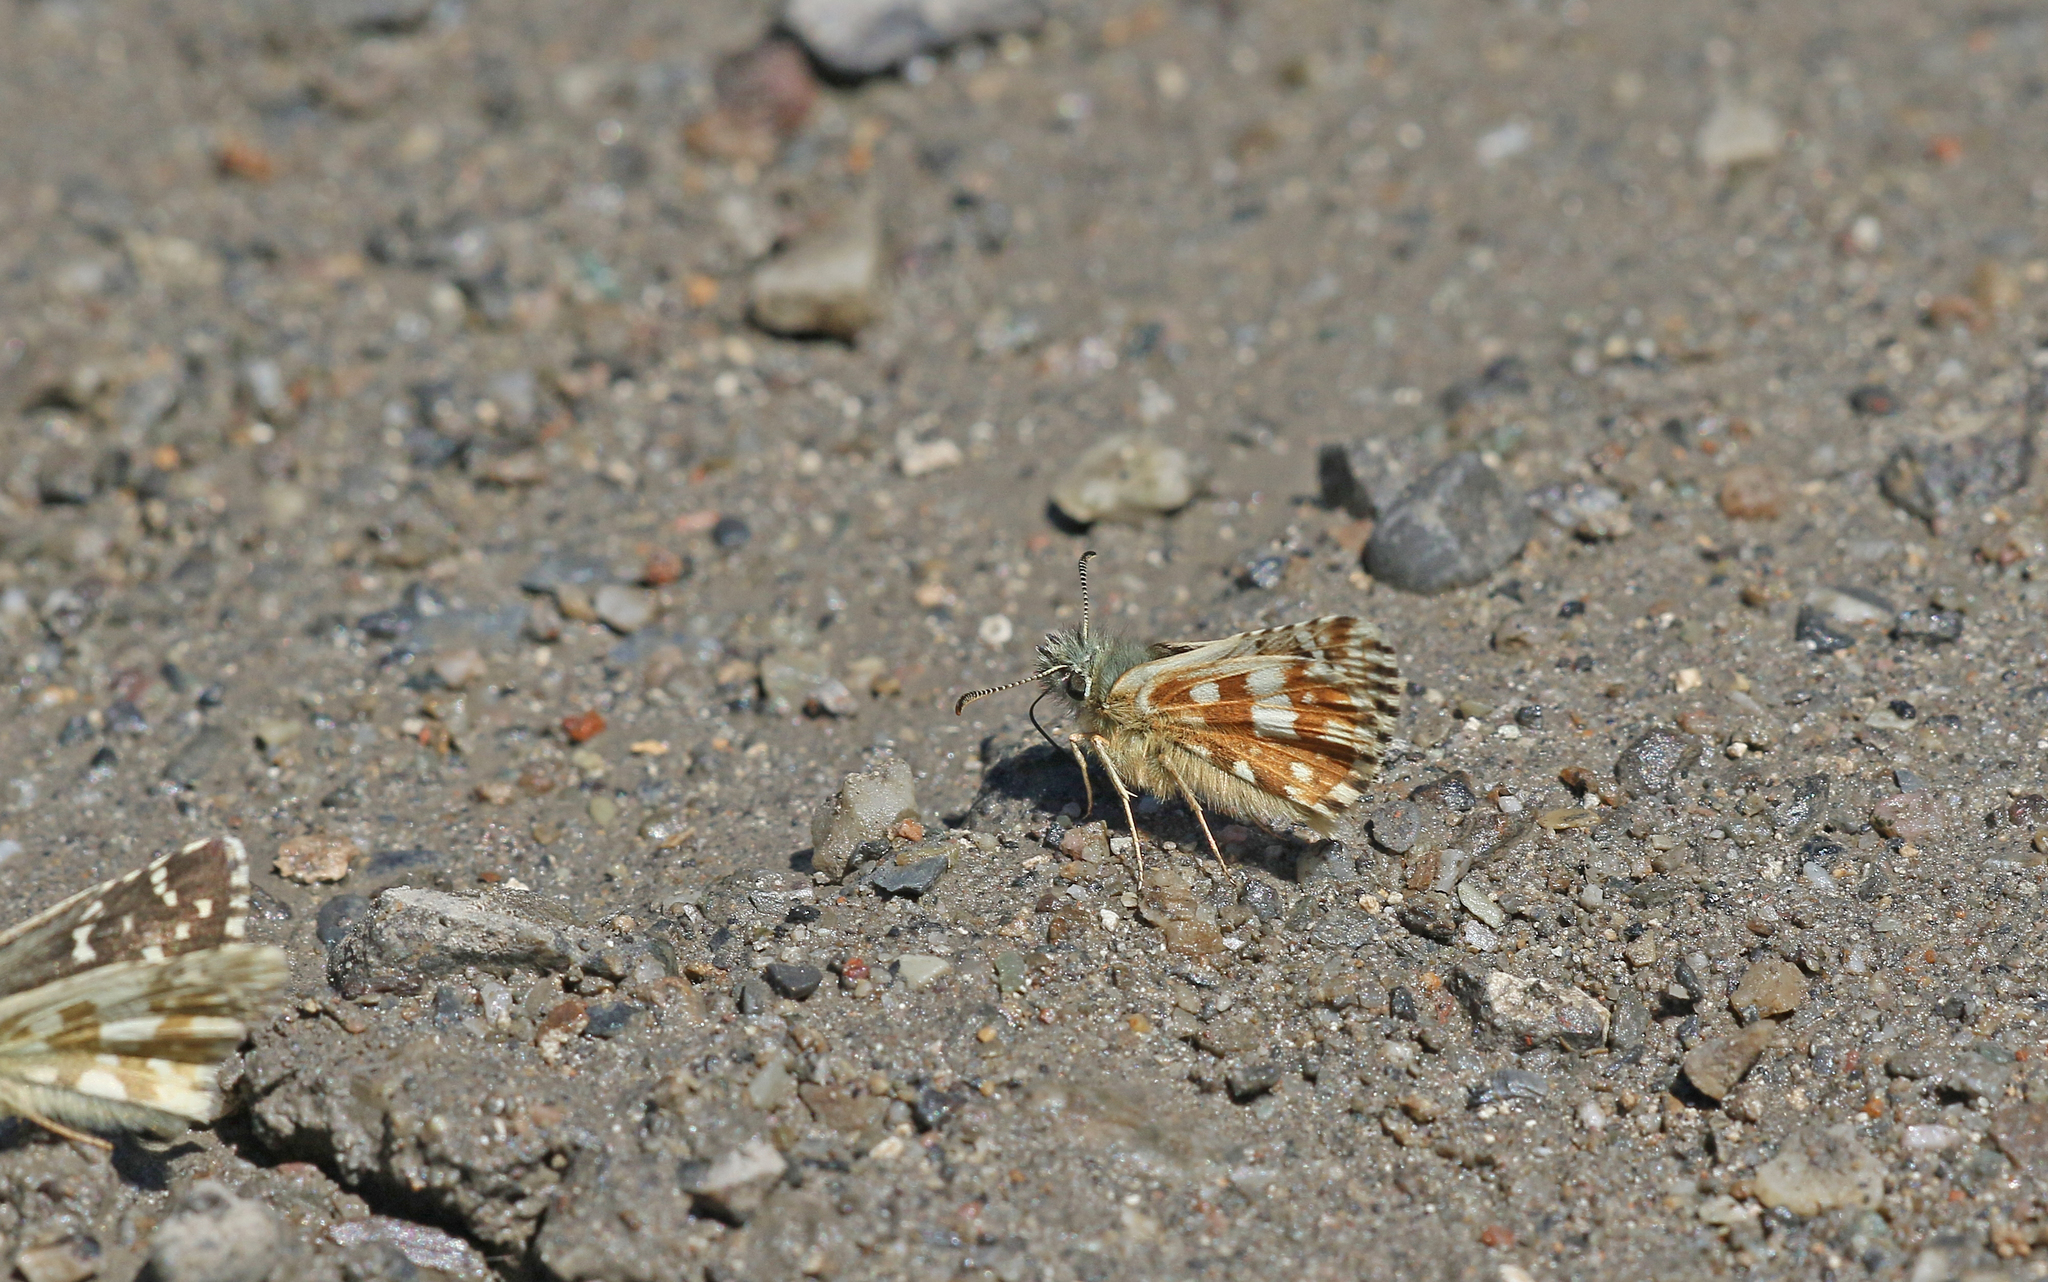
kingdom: Animalia
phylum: Arthropoda
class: Insecta
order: Lepidoptera
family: Hesperiidae
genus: Pyrgus
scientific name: Pyrgus carlinae
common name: Carline skipper
